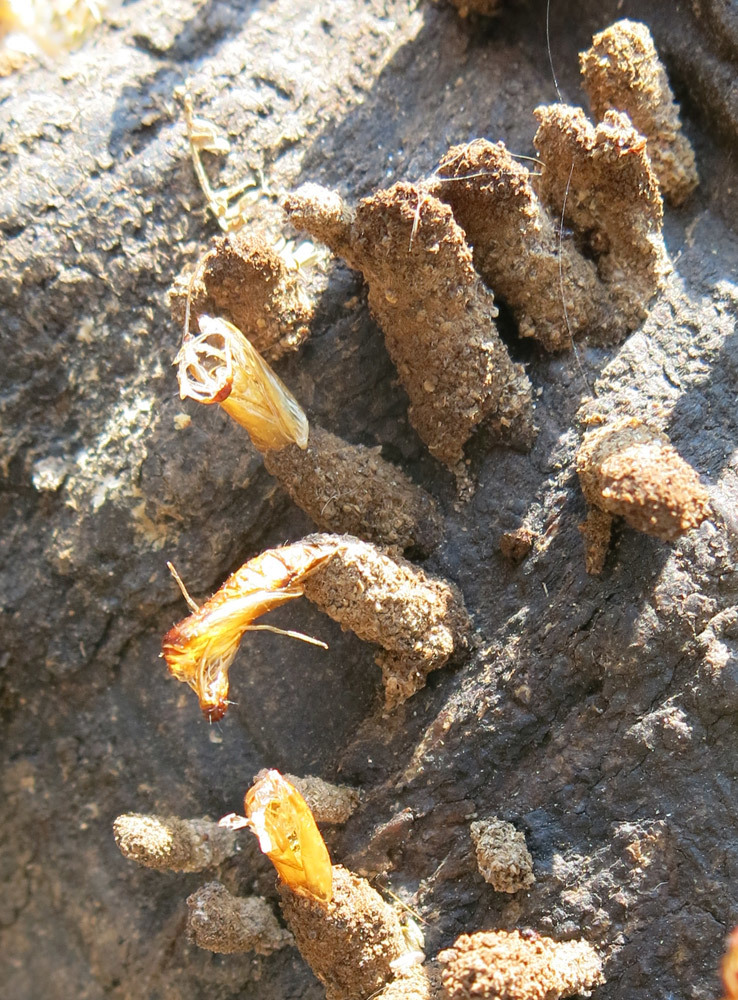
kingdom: Animalia
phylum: Arthropoda
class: Insecta
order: Lepidoptera
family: Tineidae
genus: Ceratophaga
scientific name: Ceratophaga vastellus
